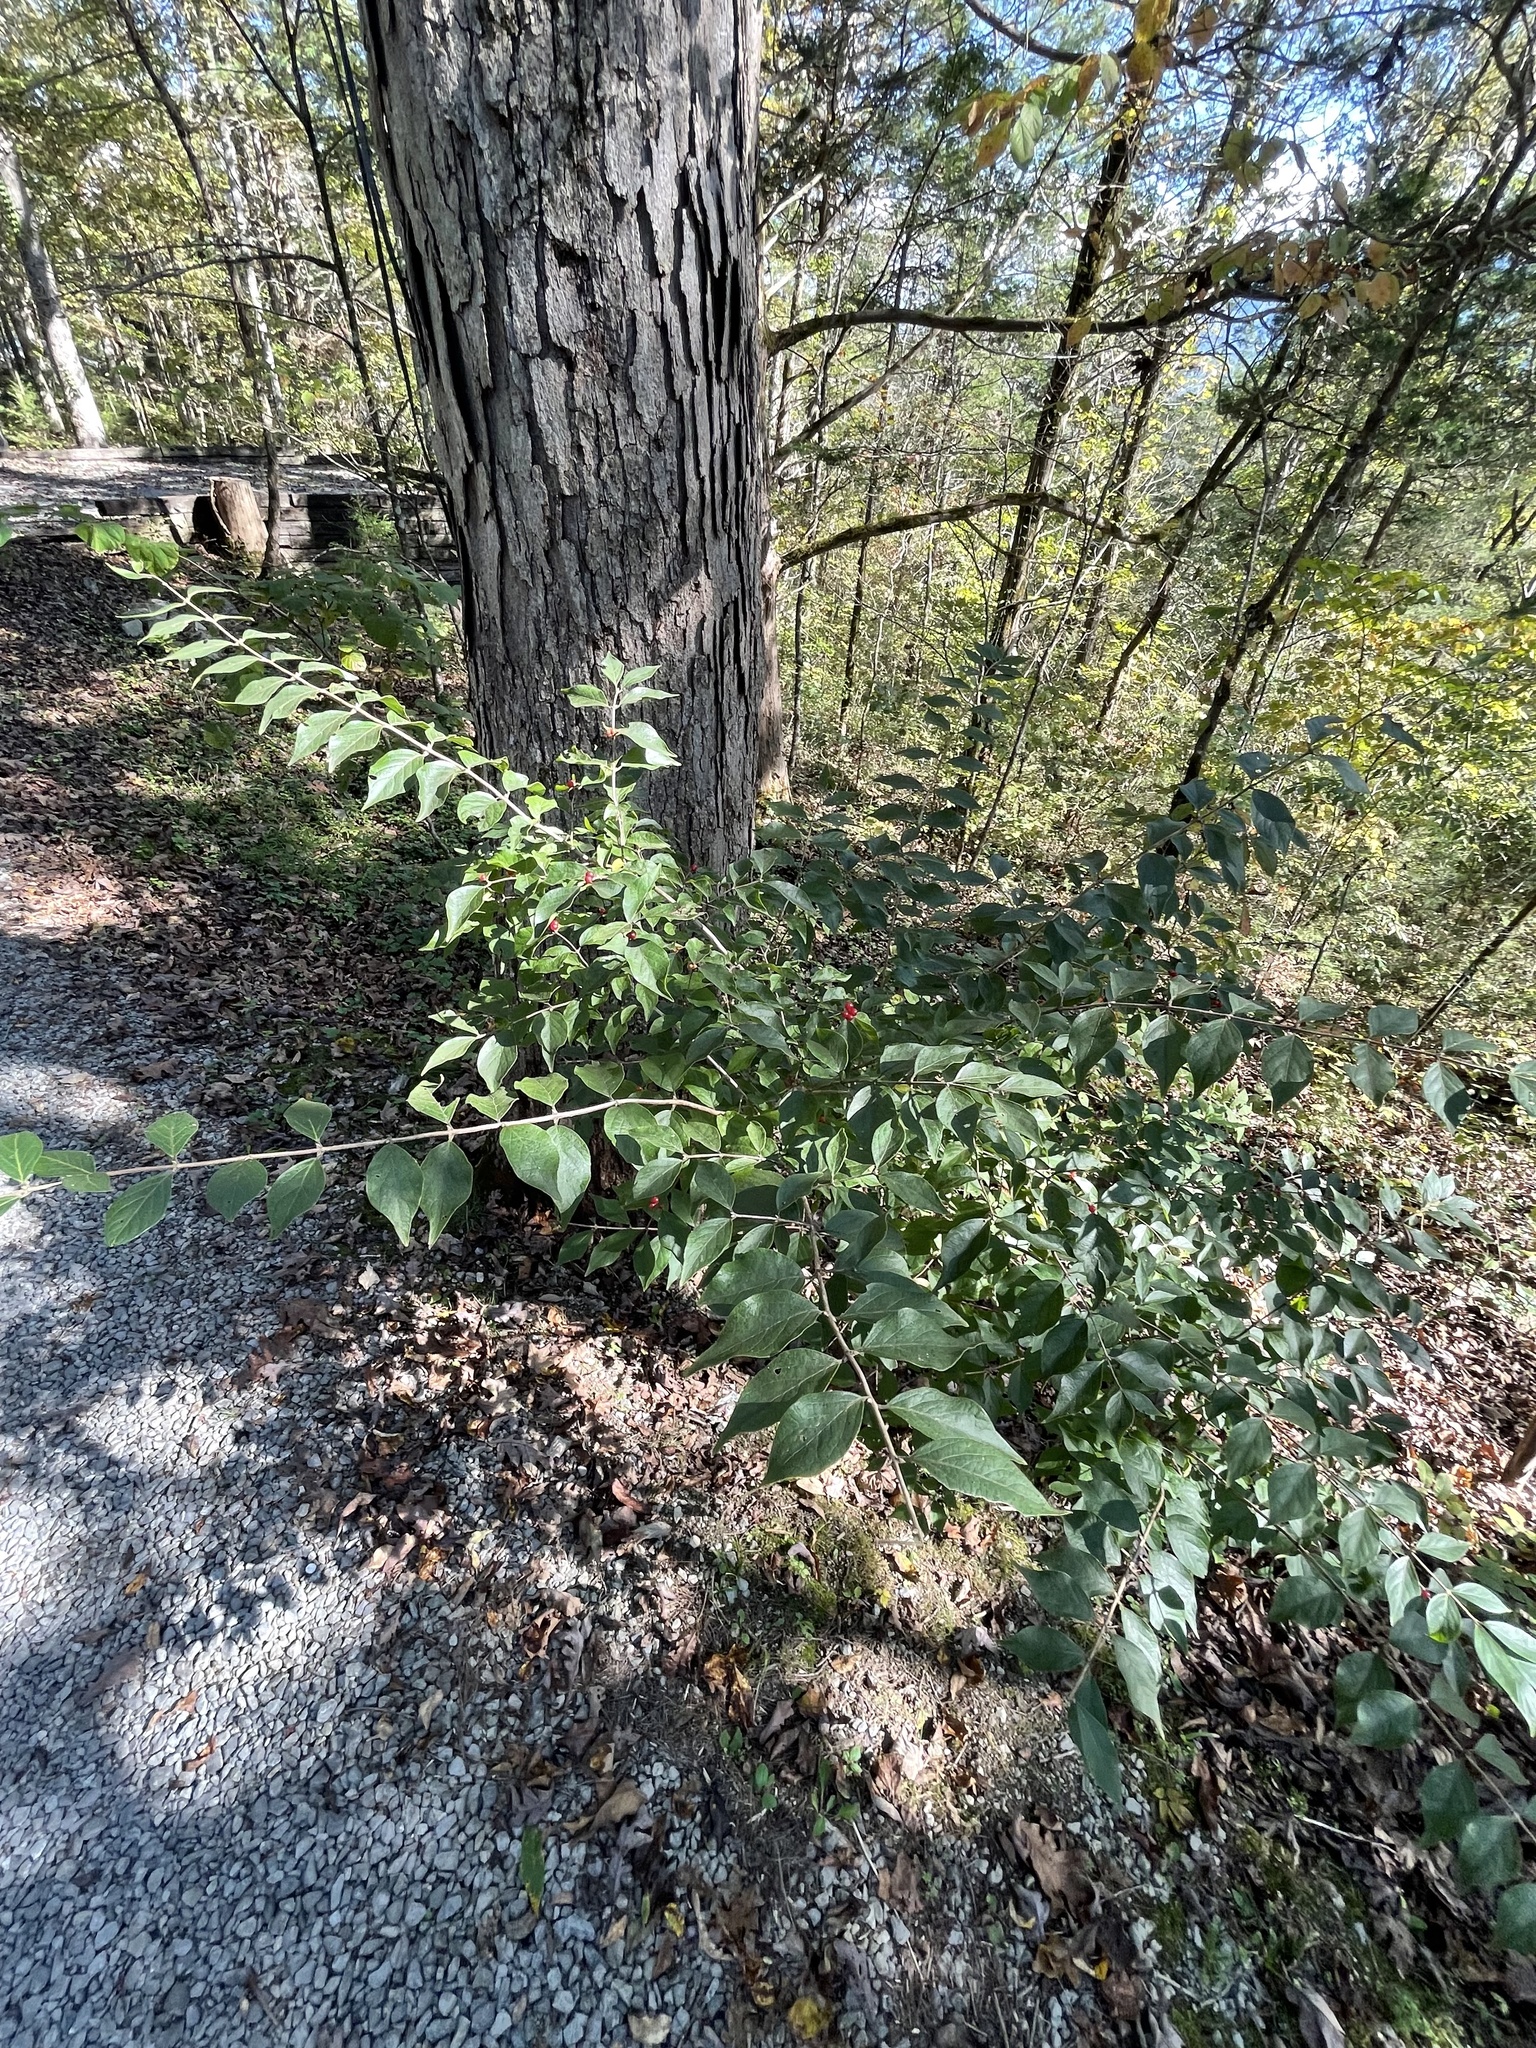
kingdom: Plantae
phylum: Tracheophyta
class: Magnoliopsida
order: Dipsacales
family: Caprifoliaceae
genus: Lonicera
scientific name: Lonicera maackii
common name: Amur honeysuckle
